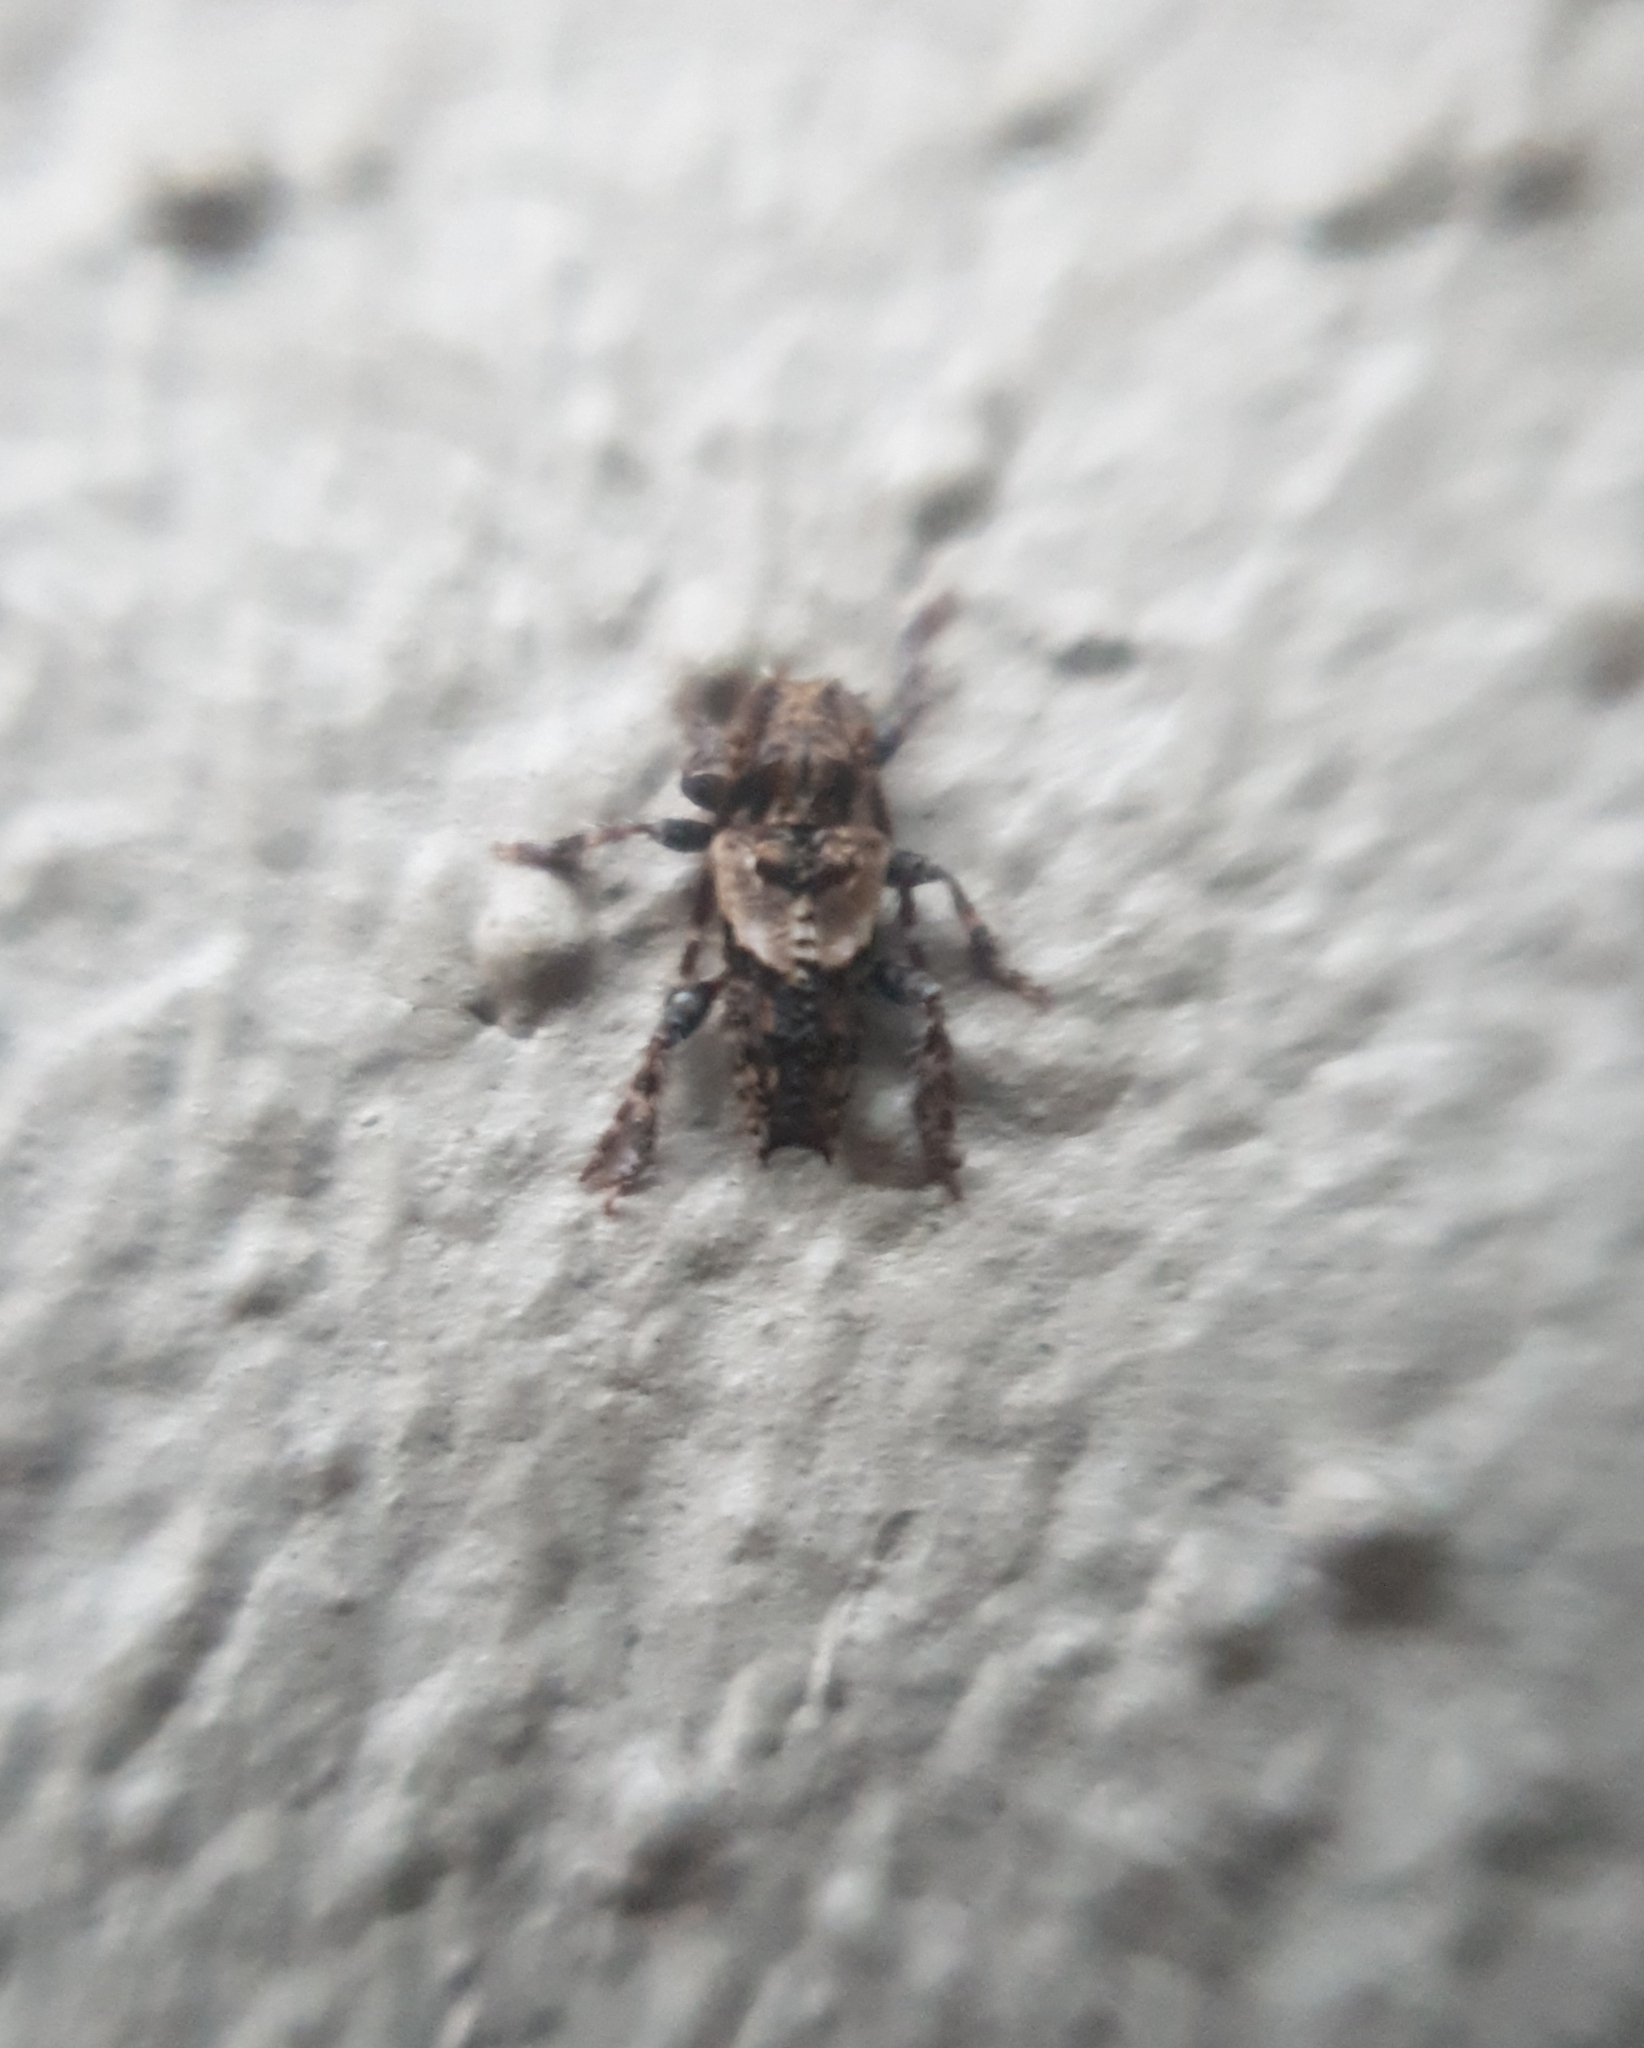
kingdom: Animalia
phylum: Arthropoda
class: Insecta
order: Coleoptera
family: Cerambycidae
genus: Pogonocherus
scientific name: Pogonocherus hispidus
